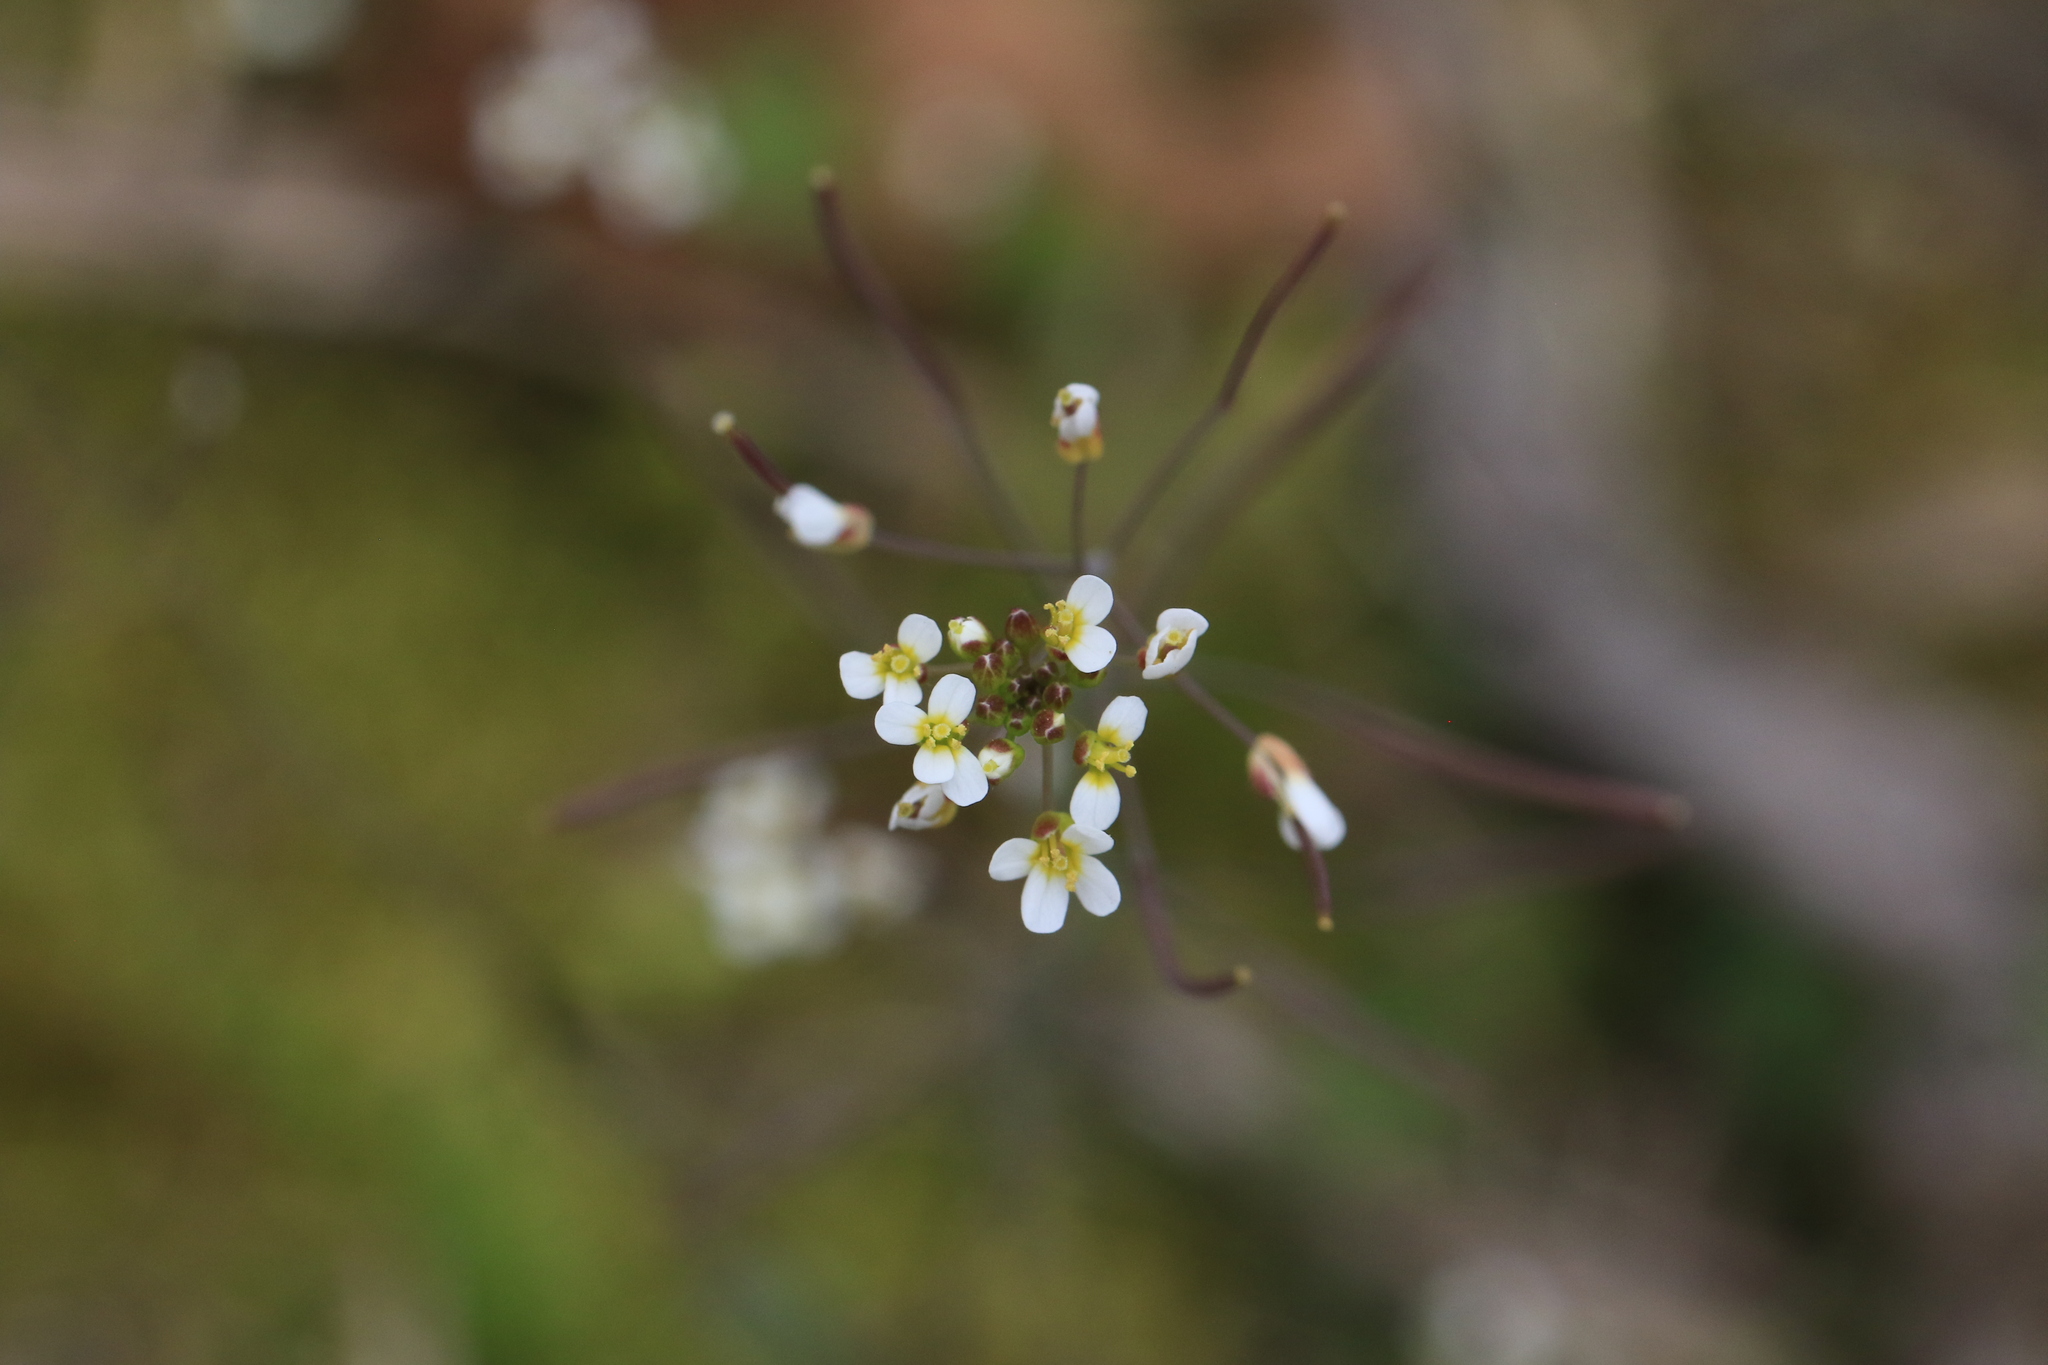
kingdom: Plantae
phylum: Tracheophyta
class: Magnoliopsida
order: Brassicales
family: Brassicaceae
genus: Arabidopsis
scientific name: Arabidopsis thaliana
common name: Thale cress
